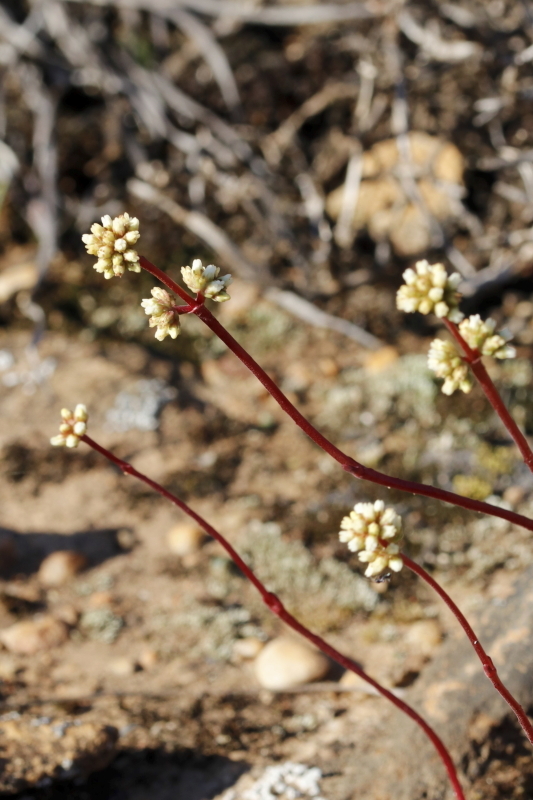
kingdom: Plantae
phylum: Tracheophyta
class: Magnoliopsida
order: Saxifragales
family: Crassulaceae
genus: Crassula
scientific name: Crassula clavata
